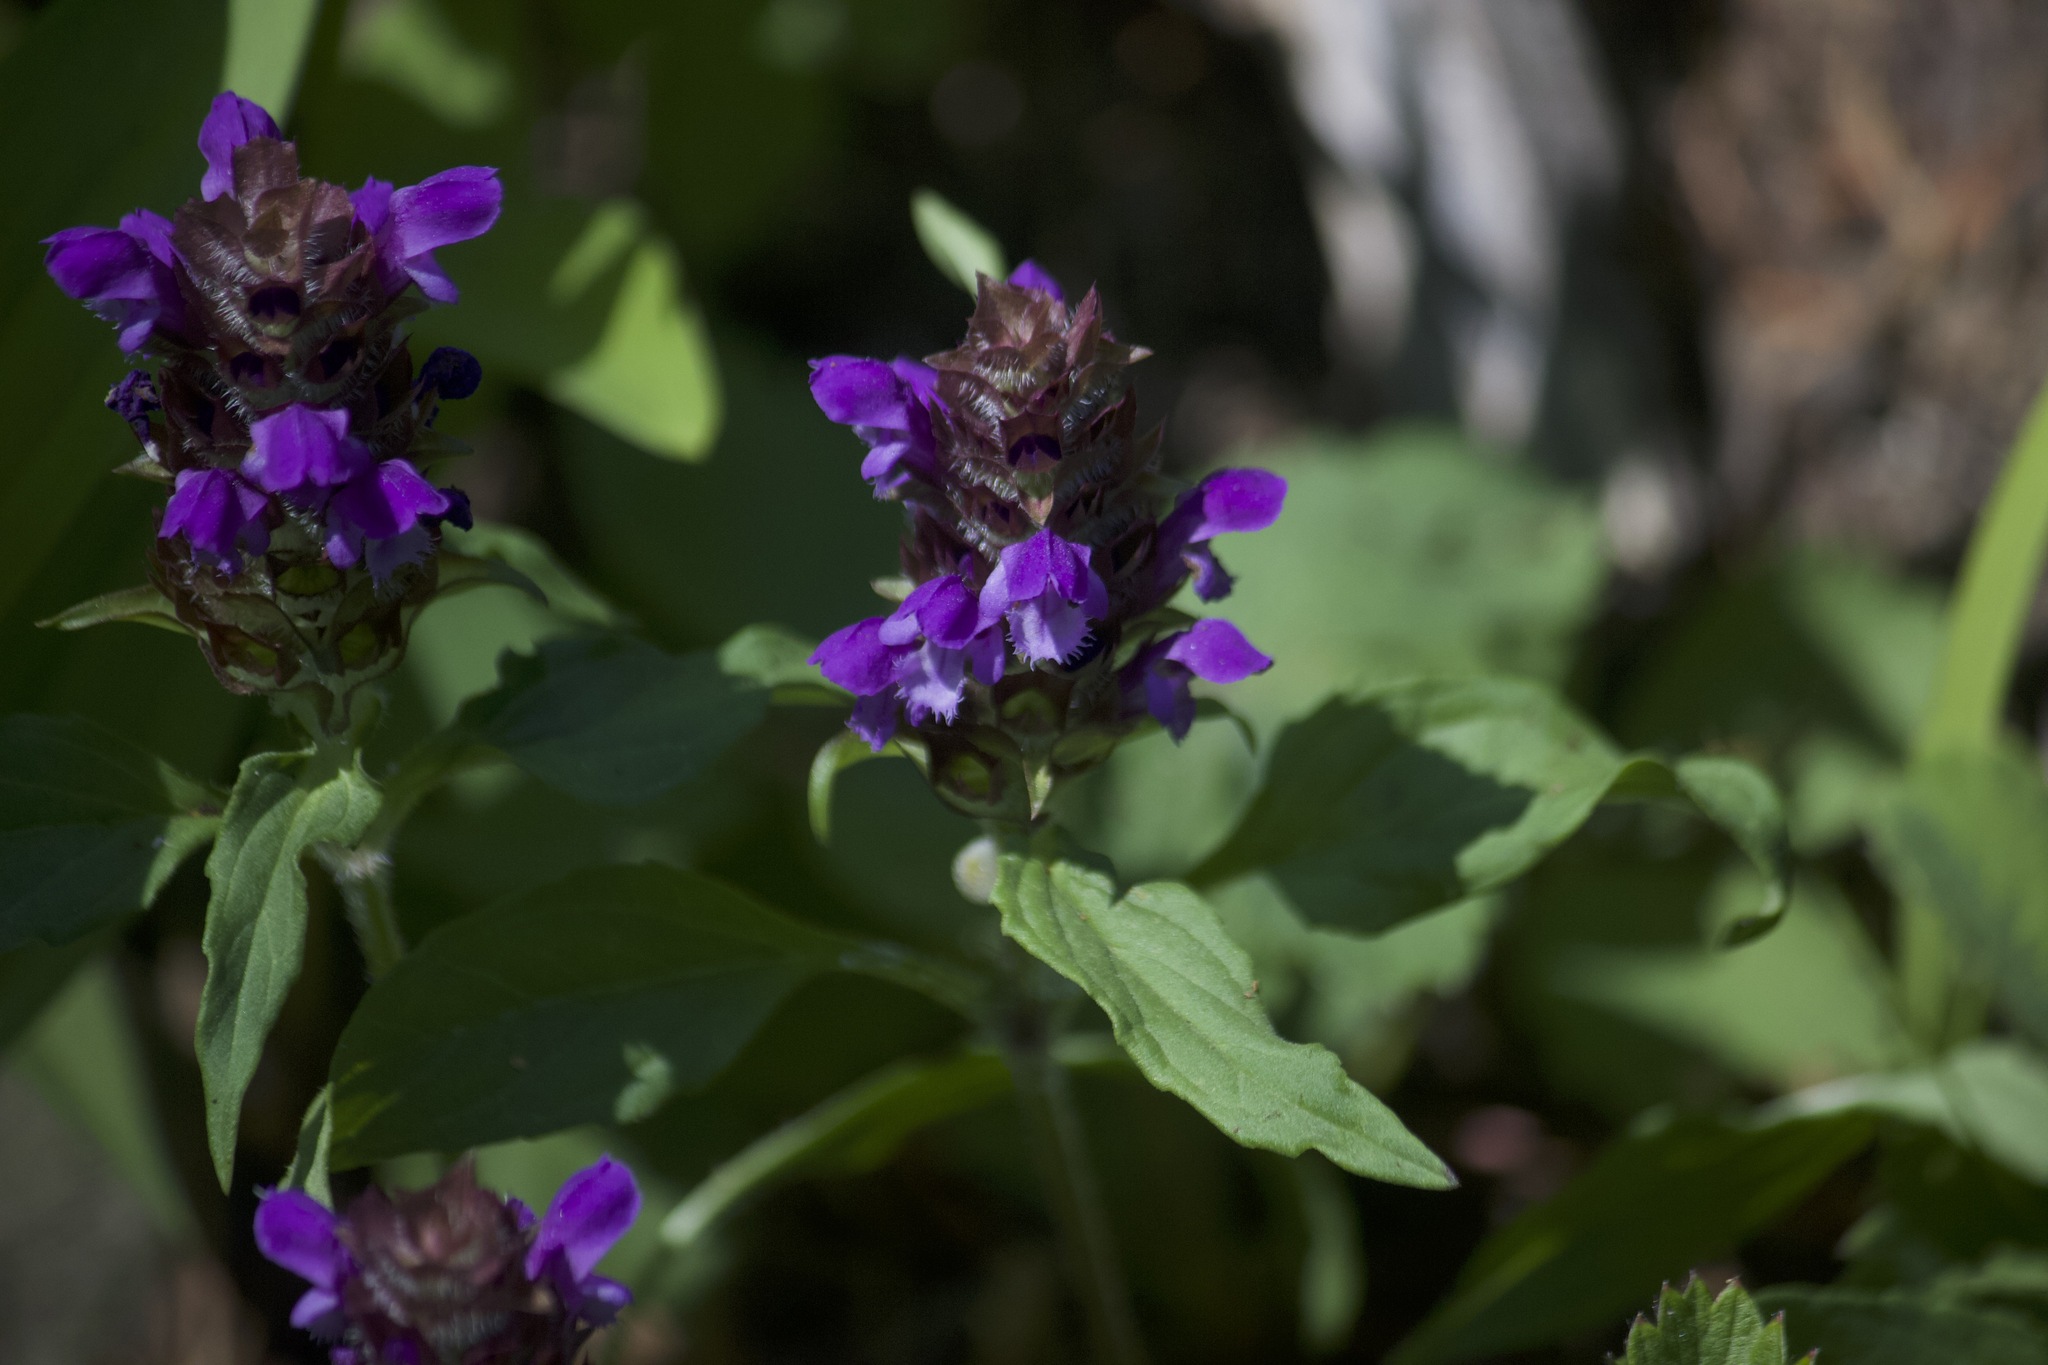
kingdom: Plantae
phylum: Tracheophyta
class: Magnoliopsida
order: Lamiales
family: Lamiaceae
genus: Prunella
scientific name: Prunella vulgaris
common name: Heal-all
